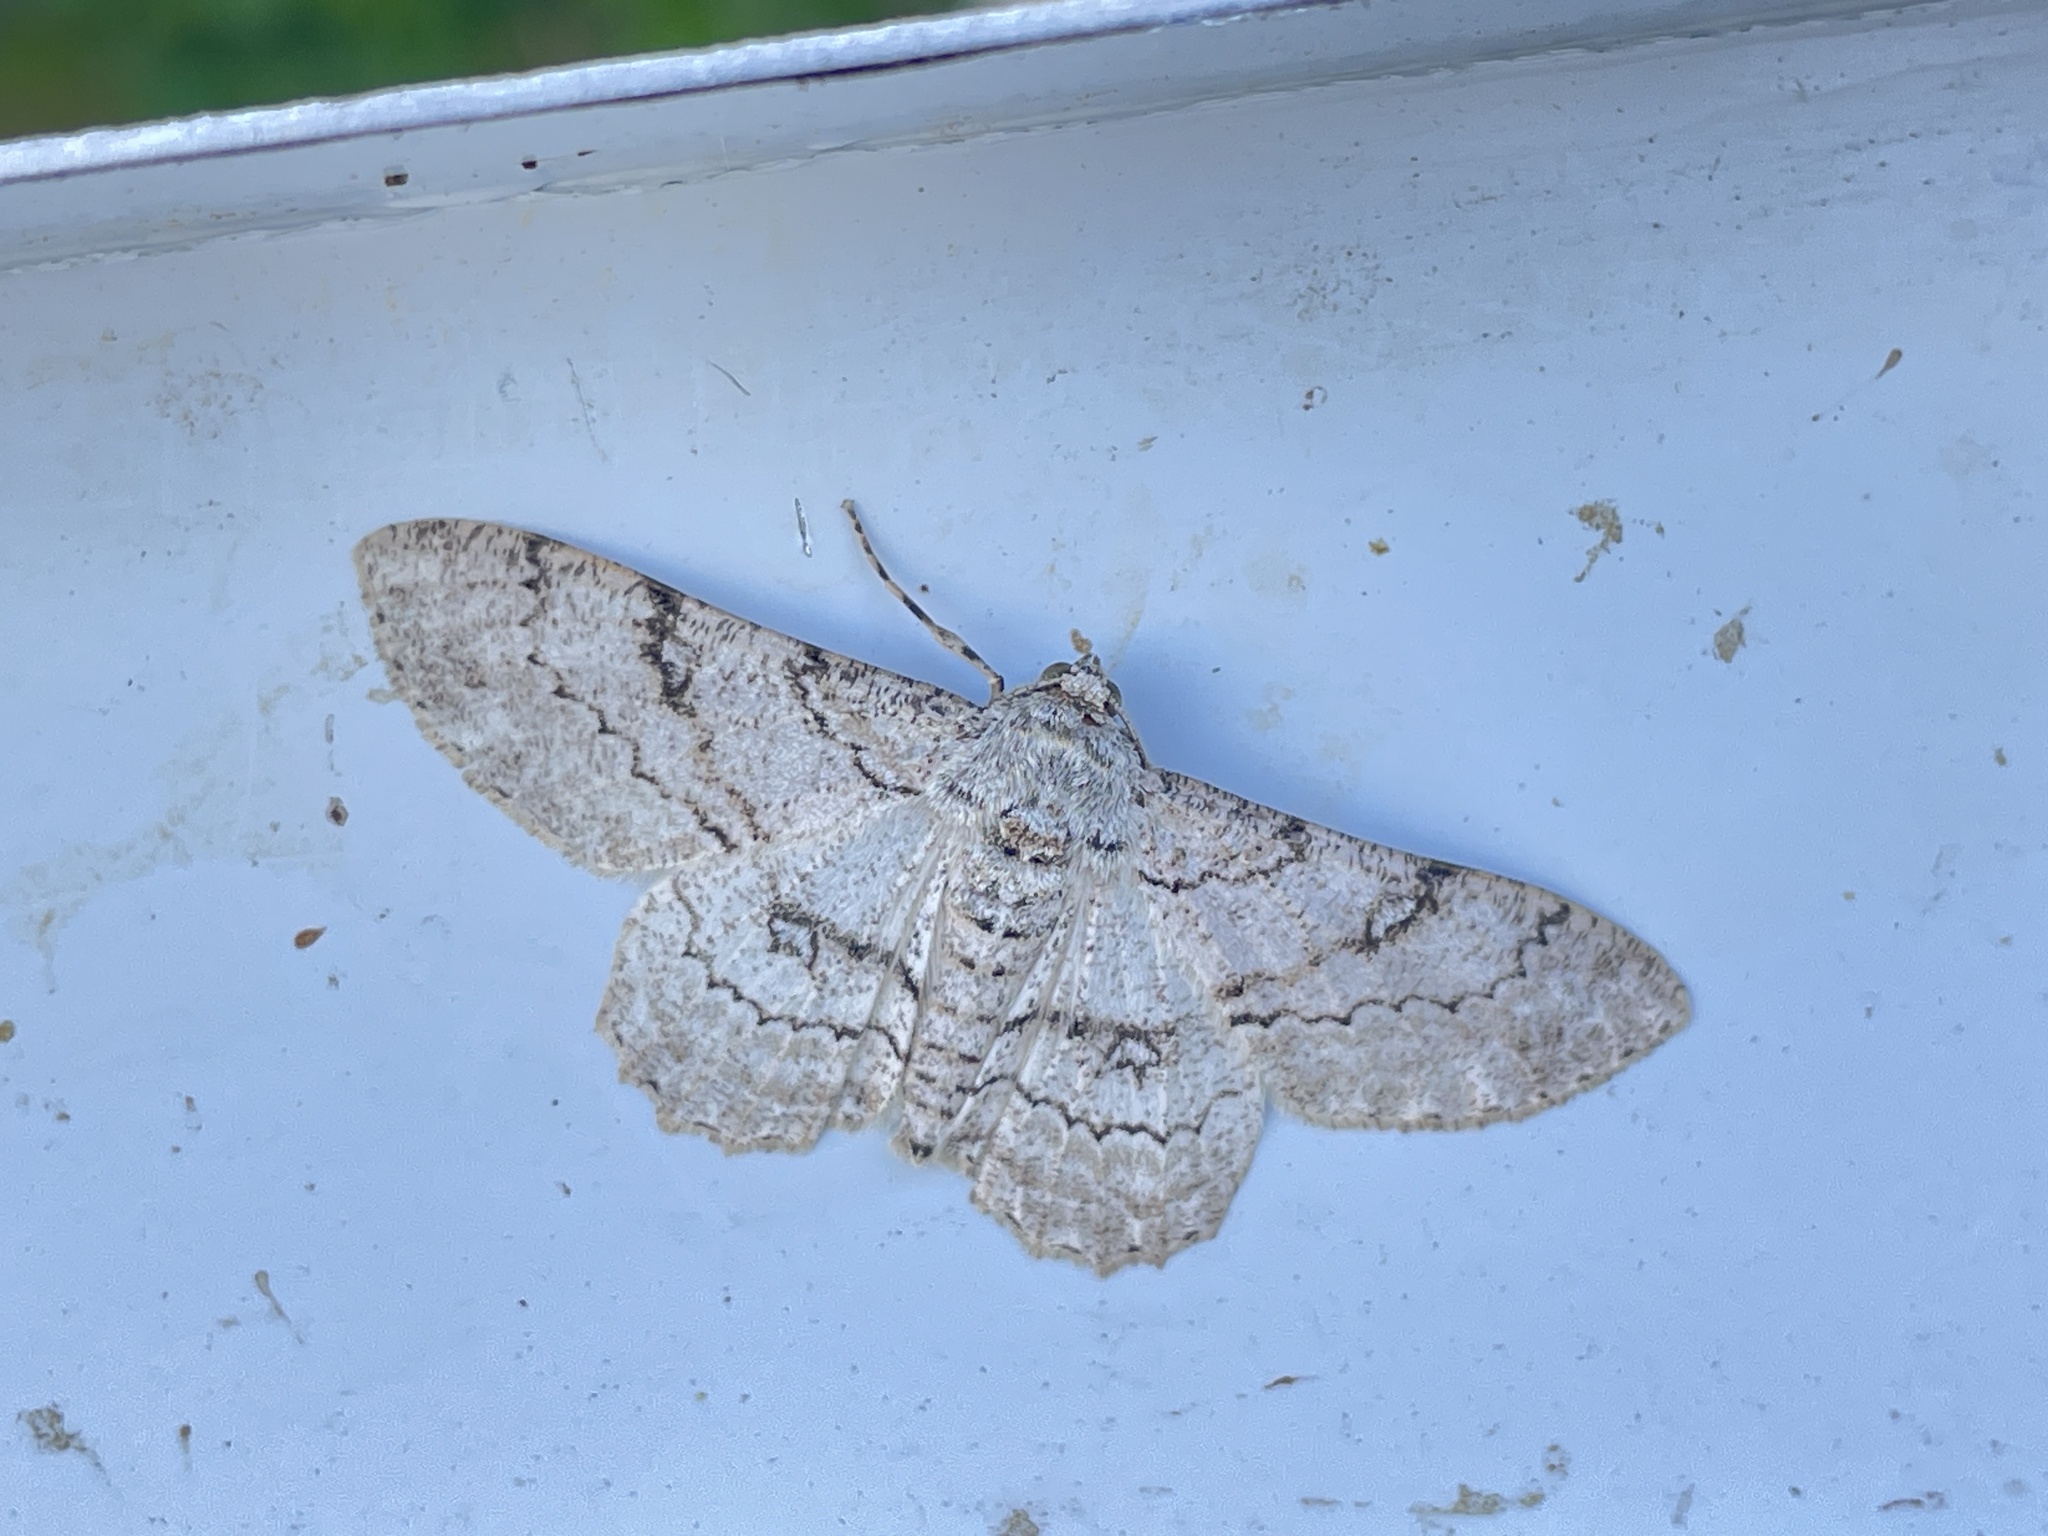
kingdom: Animalia
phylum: Arthropoda
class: Insecta
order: Lepidoptera
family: Geometridae
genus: Ascotis
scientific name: Ascotis selenaria
